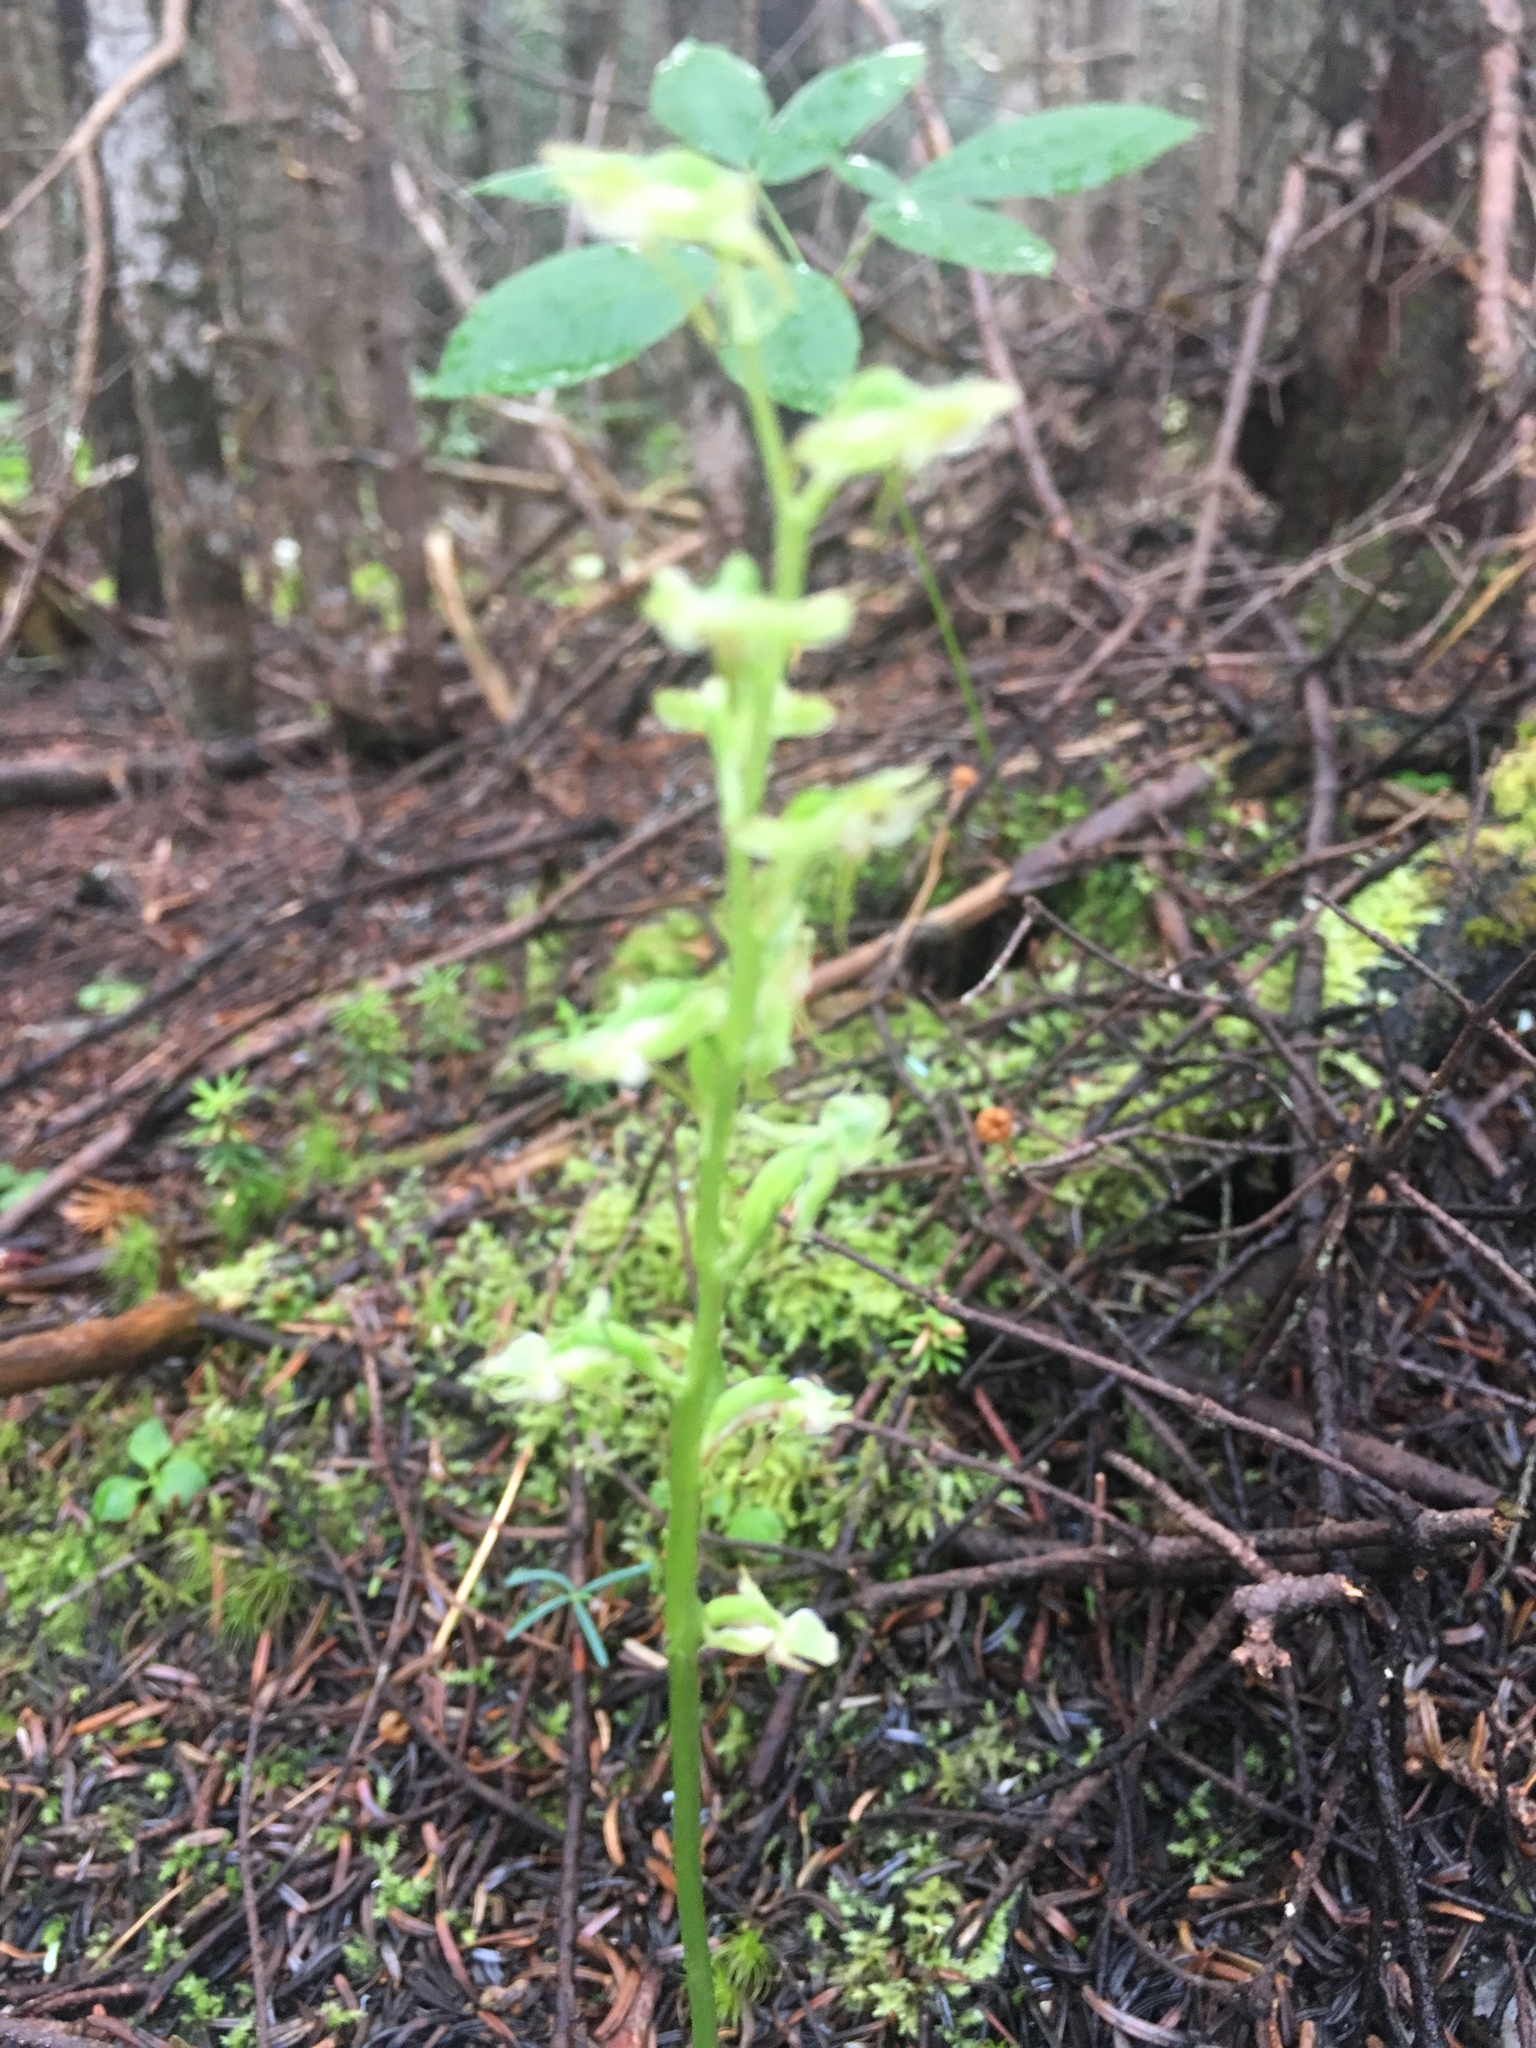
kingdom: Plantae
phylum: Tracheophyta
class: Liliopsida
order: Asparagales
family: Orchidaceae
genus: Platanthera
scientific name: Platanthera obtusata
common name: Blunt bog orchid
